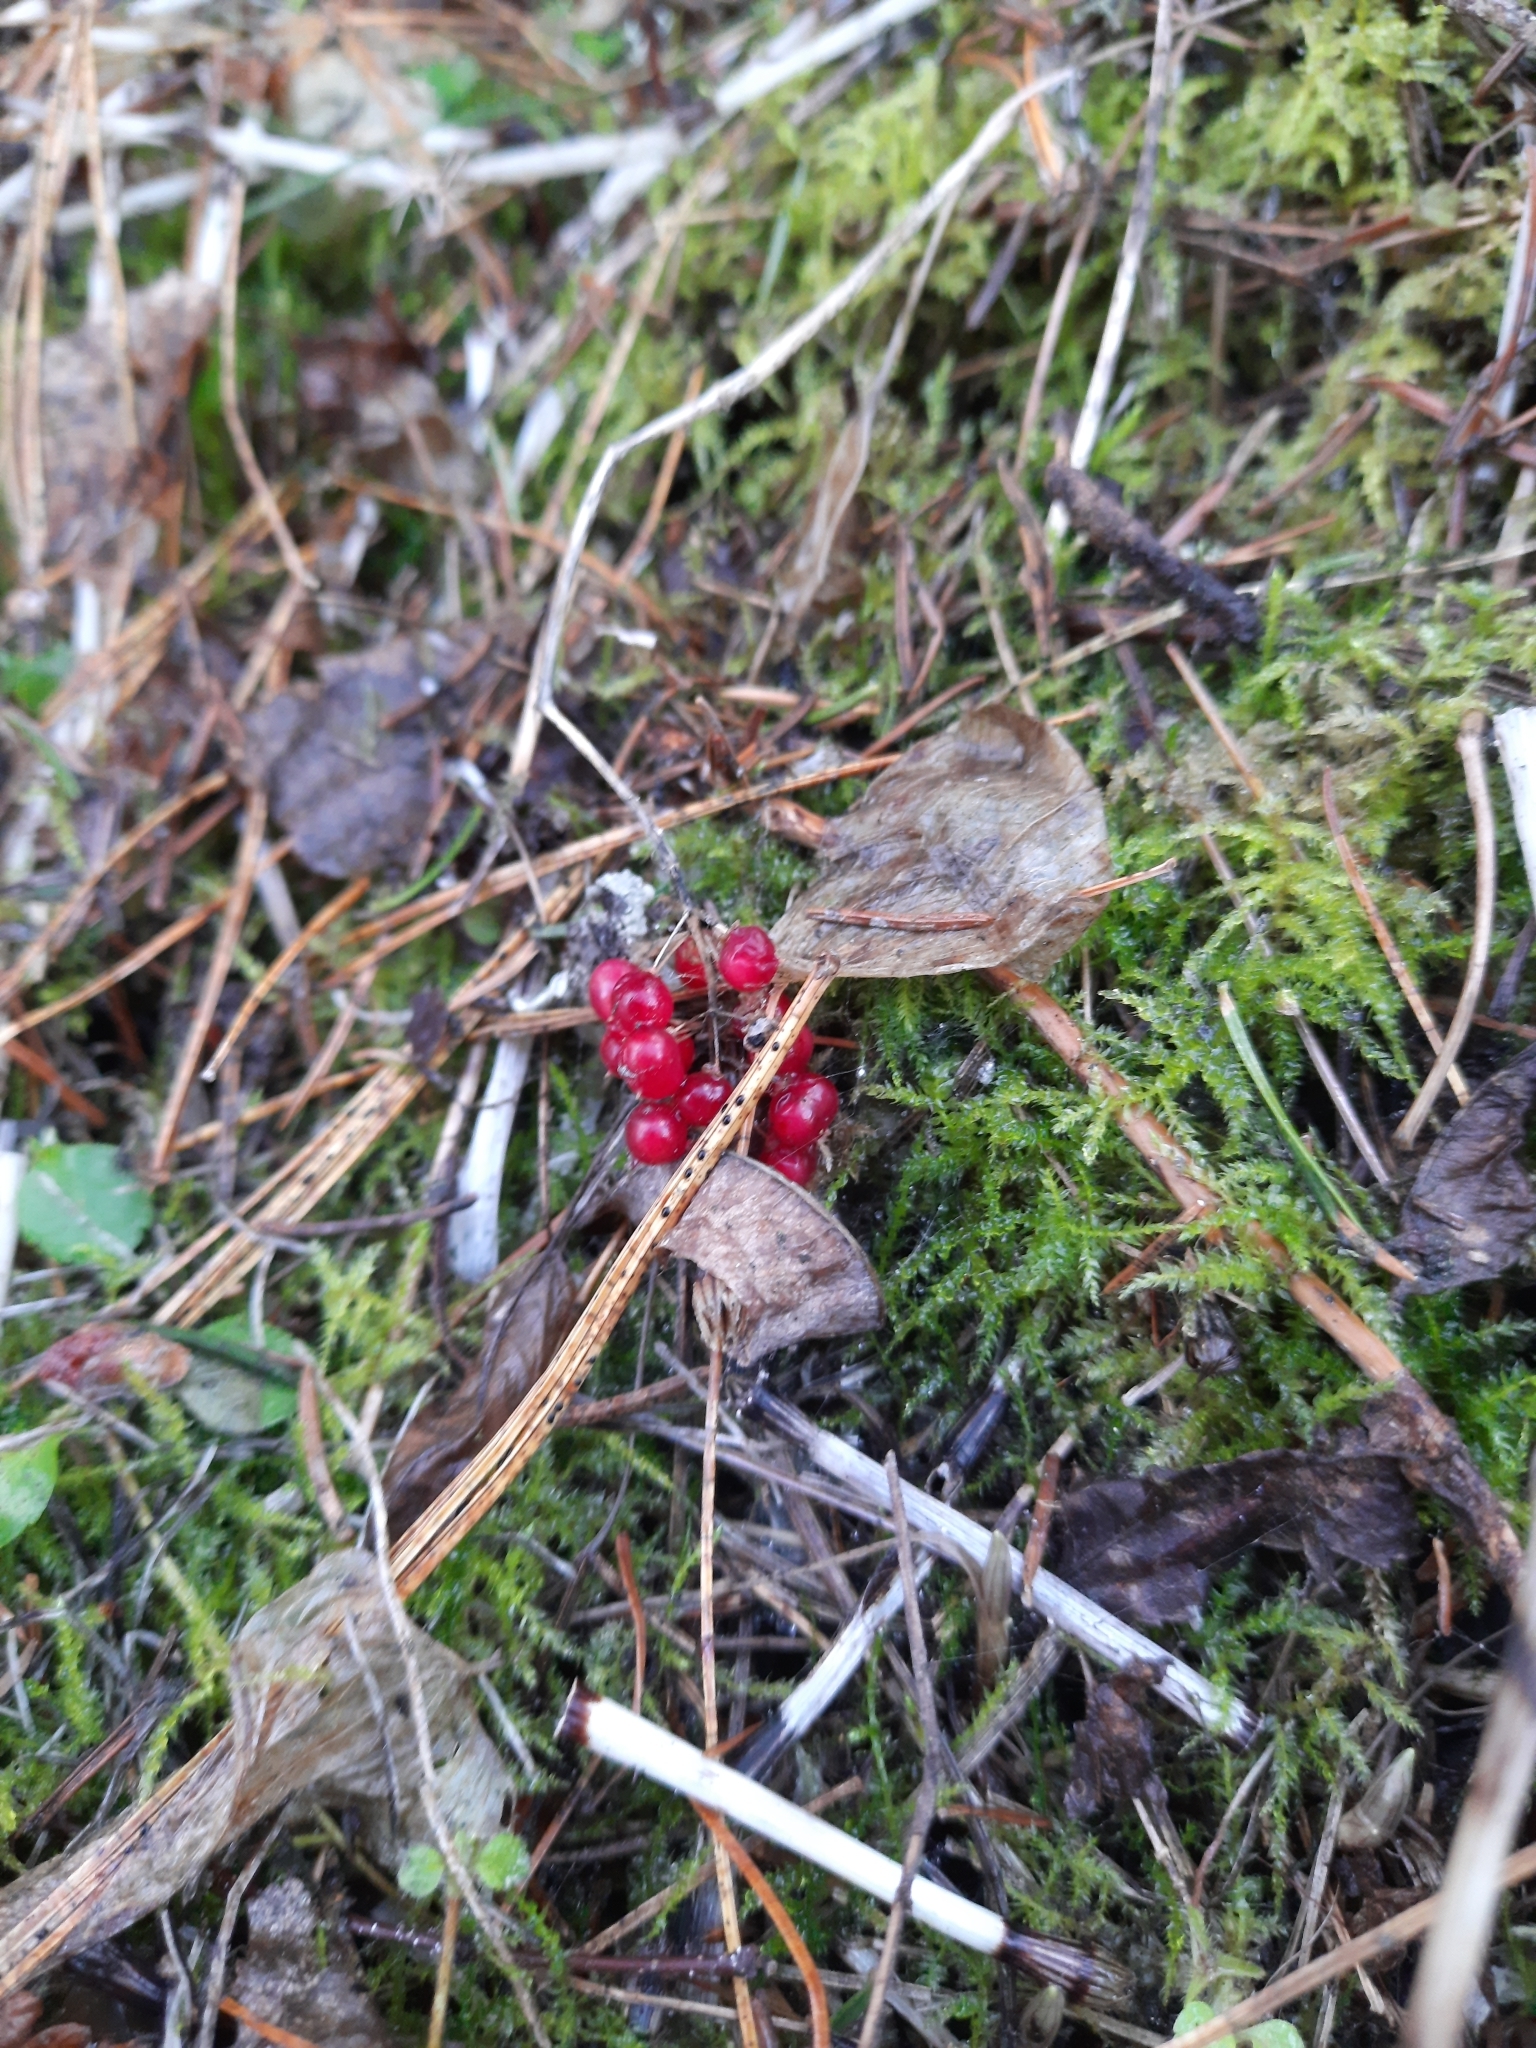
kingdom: Plantae
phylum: Tracheophyta
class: Liliopsida
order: Asparagales
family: Asparagaceae
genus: Maianthemum
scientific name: Maianthemum bifolium
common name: May lily
